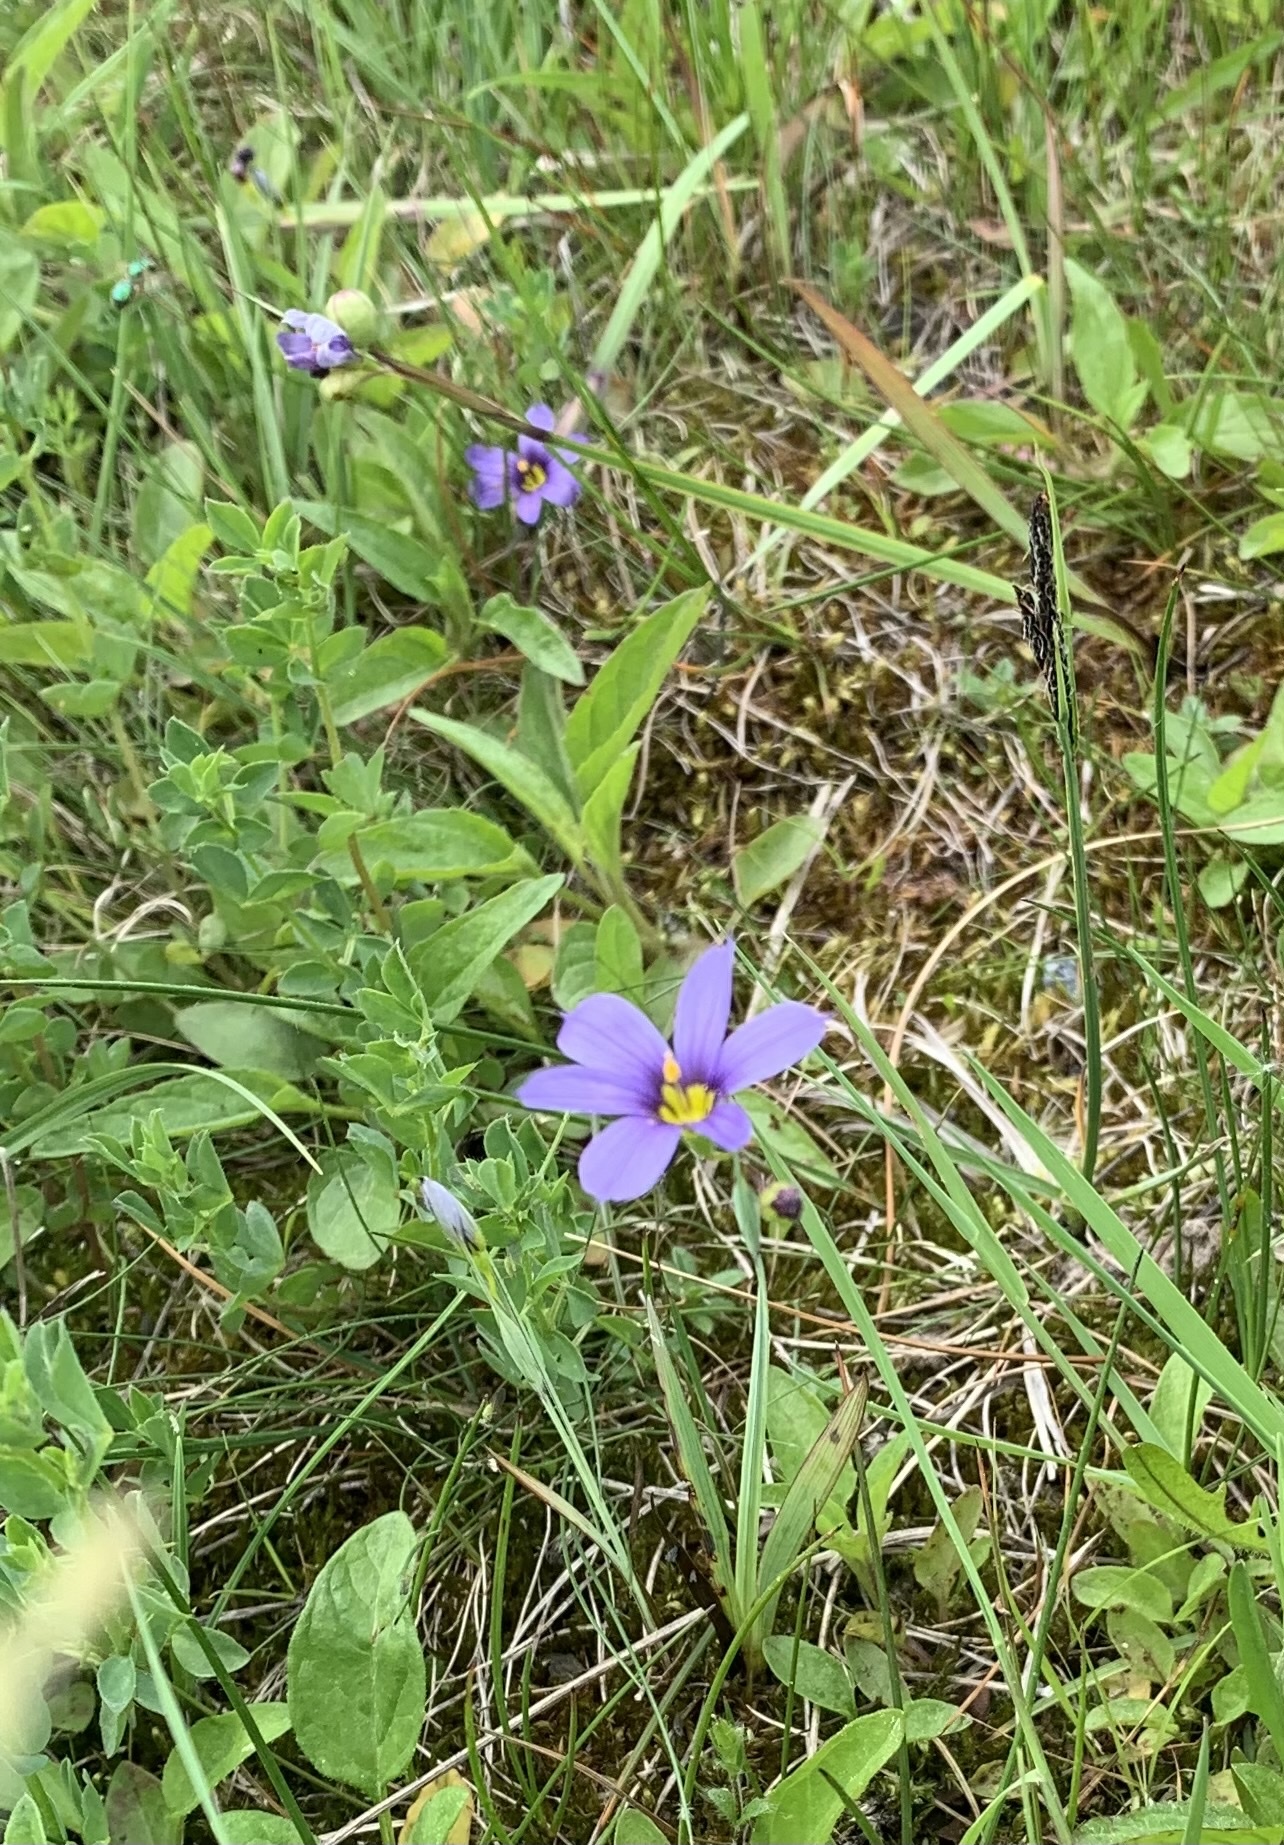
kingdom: Plantae
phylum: Tracheophyta
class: Liliopsida
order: Asparagales
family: Iridaceae
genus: Sisyrinchium
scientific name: Sisyrinchium montanum
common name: American blue-eyed-grass
